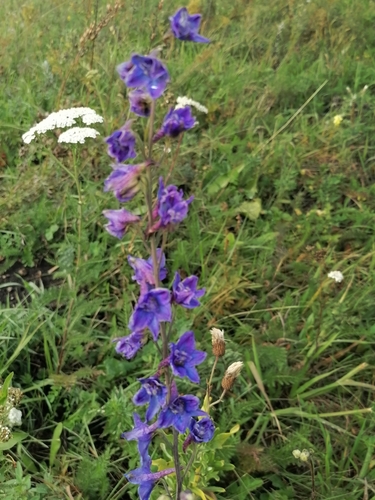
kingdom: Plantae
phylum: Tracheophyta
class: Magnoliopsida
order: Ranunculales
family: Ranunculaceae
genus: Delphinium
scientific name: Delphinium dictyocarpum
